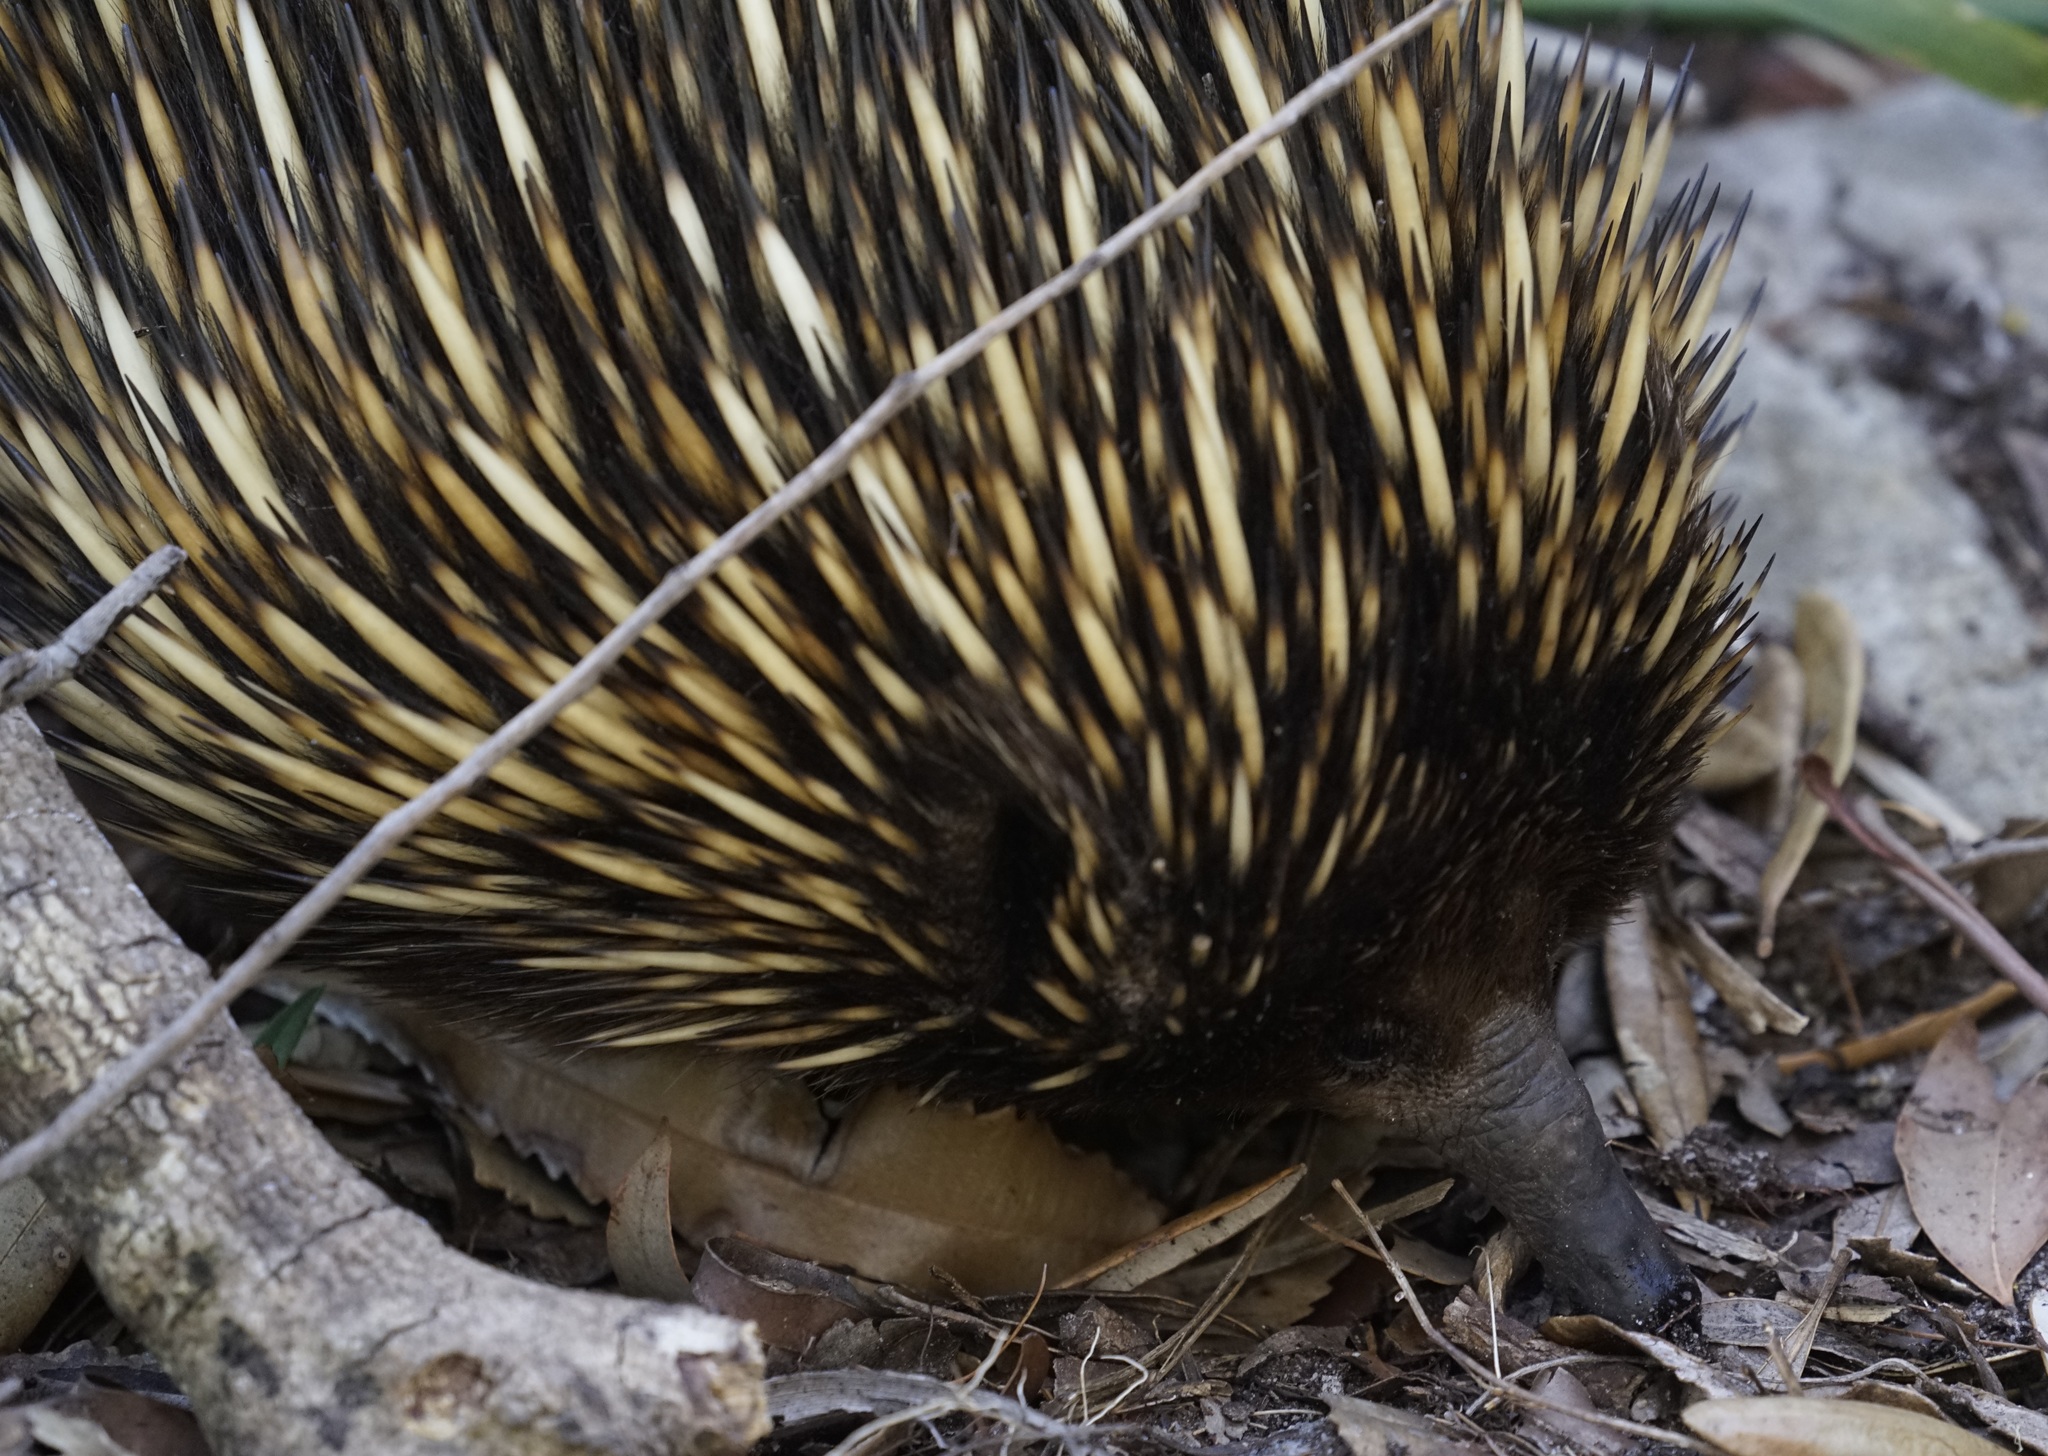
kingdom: Animalia
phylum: Chordata
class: Mammalia
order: Monotremata
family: Tachyglossidae
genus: Tachyglossus
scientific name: Tachyglossus aculeatus
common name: Short-beaked echidna
